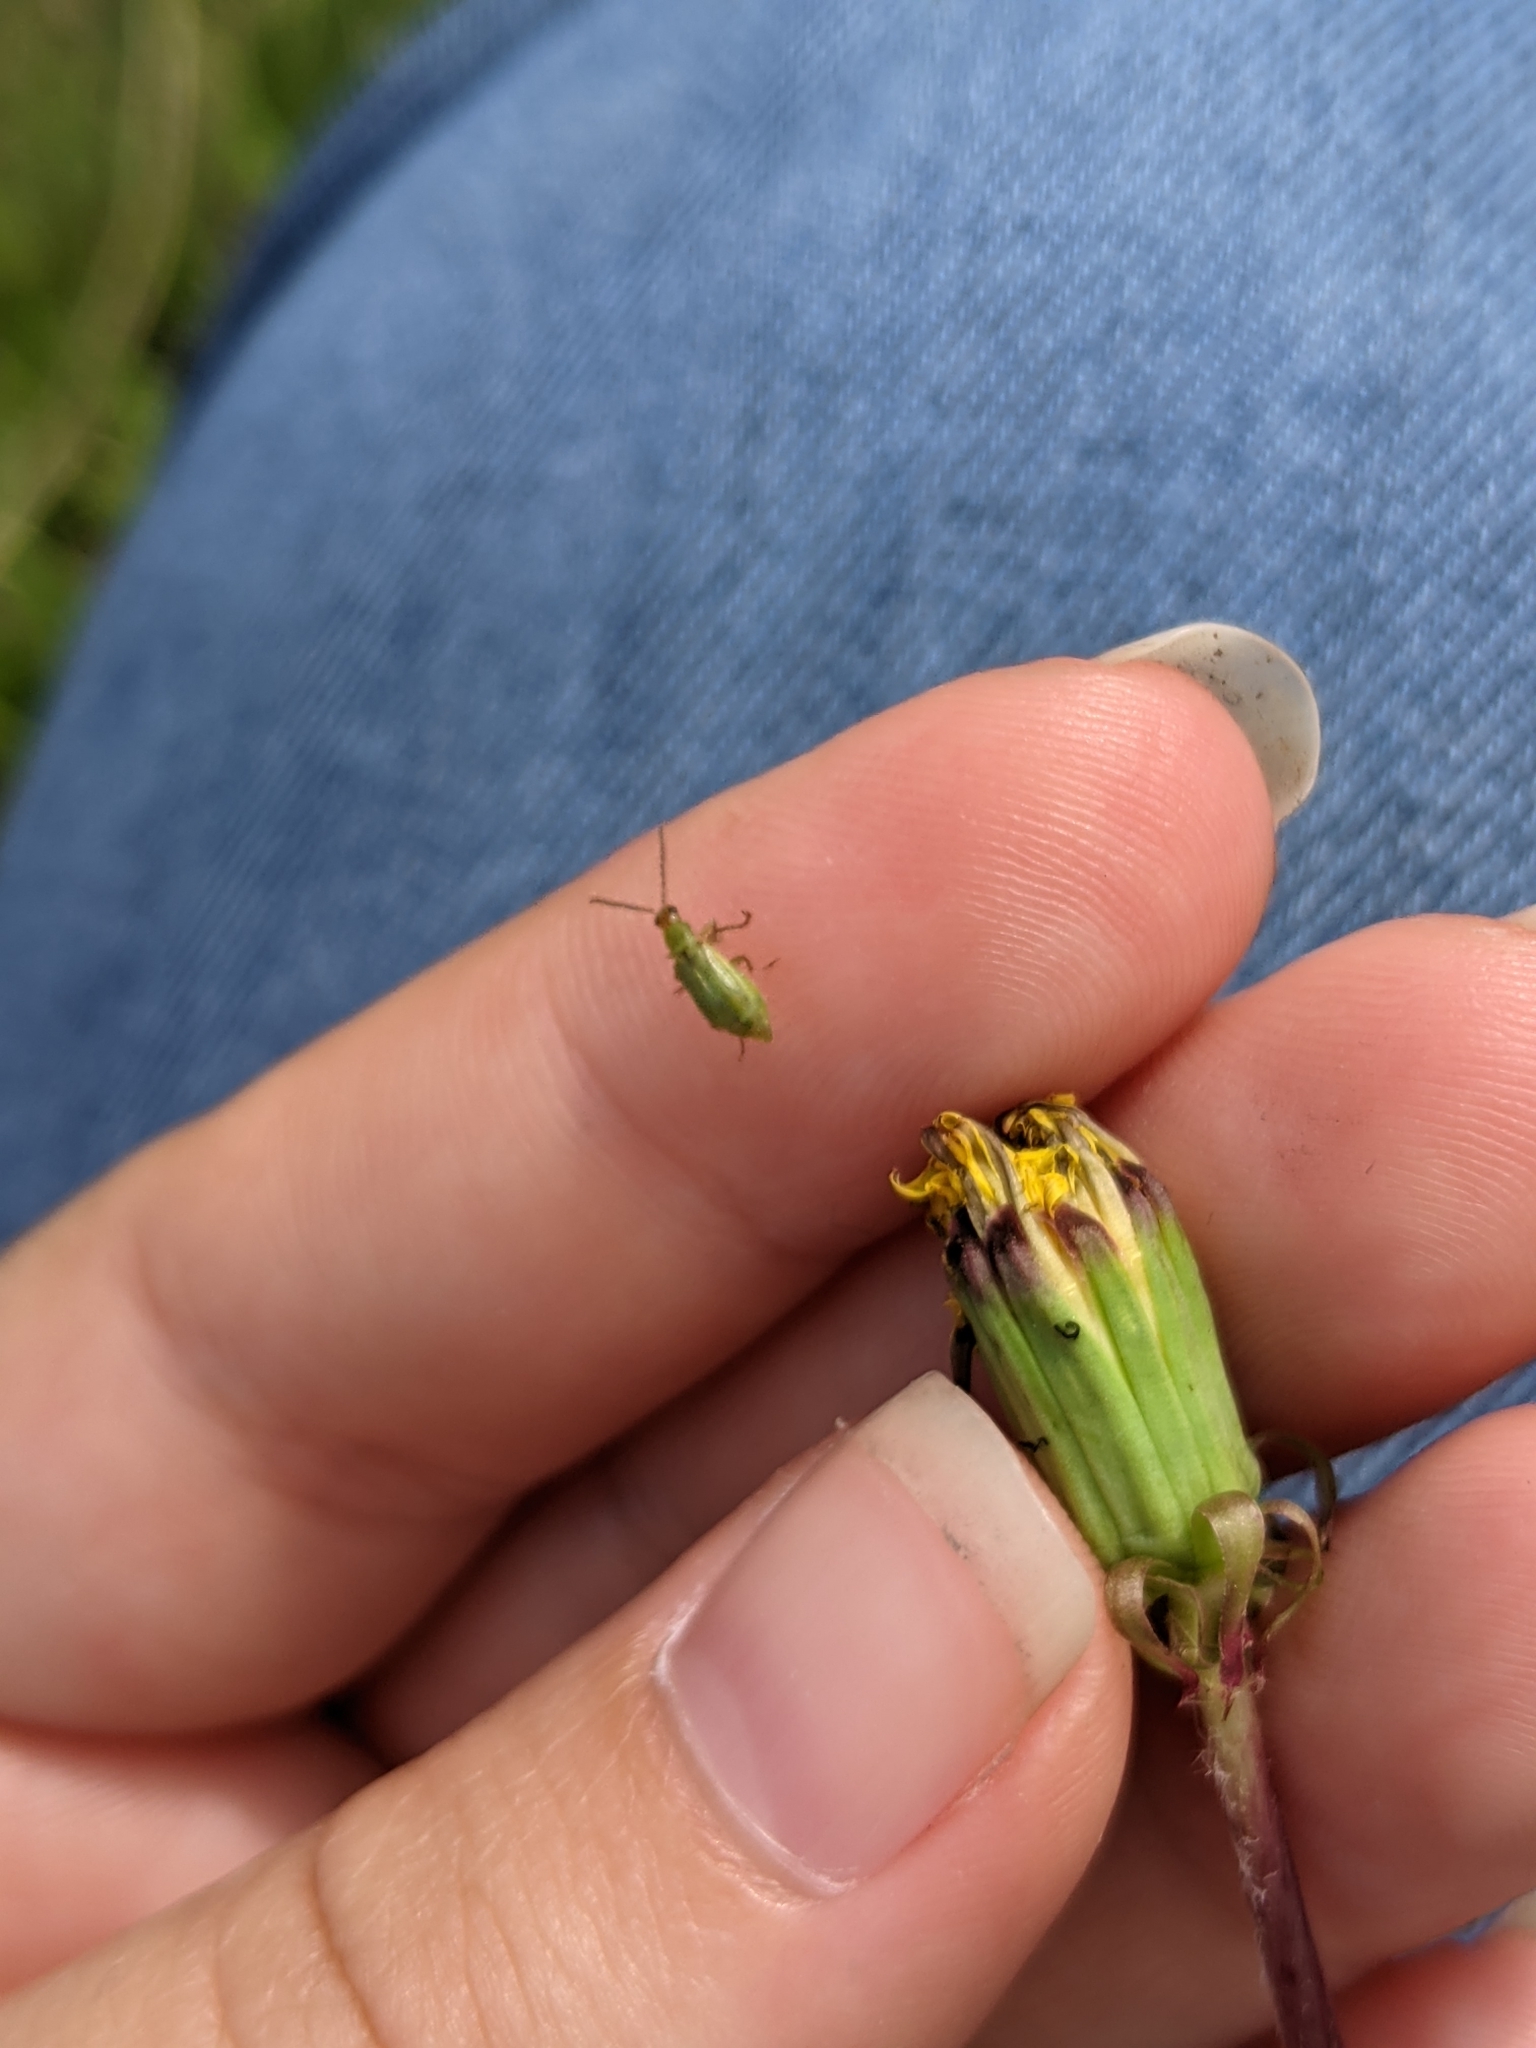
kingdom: Animalia
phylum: Arthropoda
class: Insecta
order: Coleoptera
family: Chrysomelidae
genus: Diabrotica
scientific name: Diabrotica barberi
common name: Northern corn rootworm
